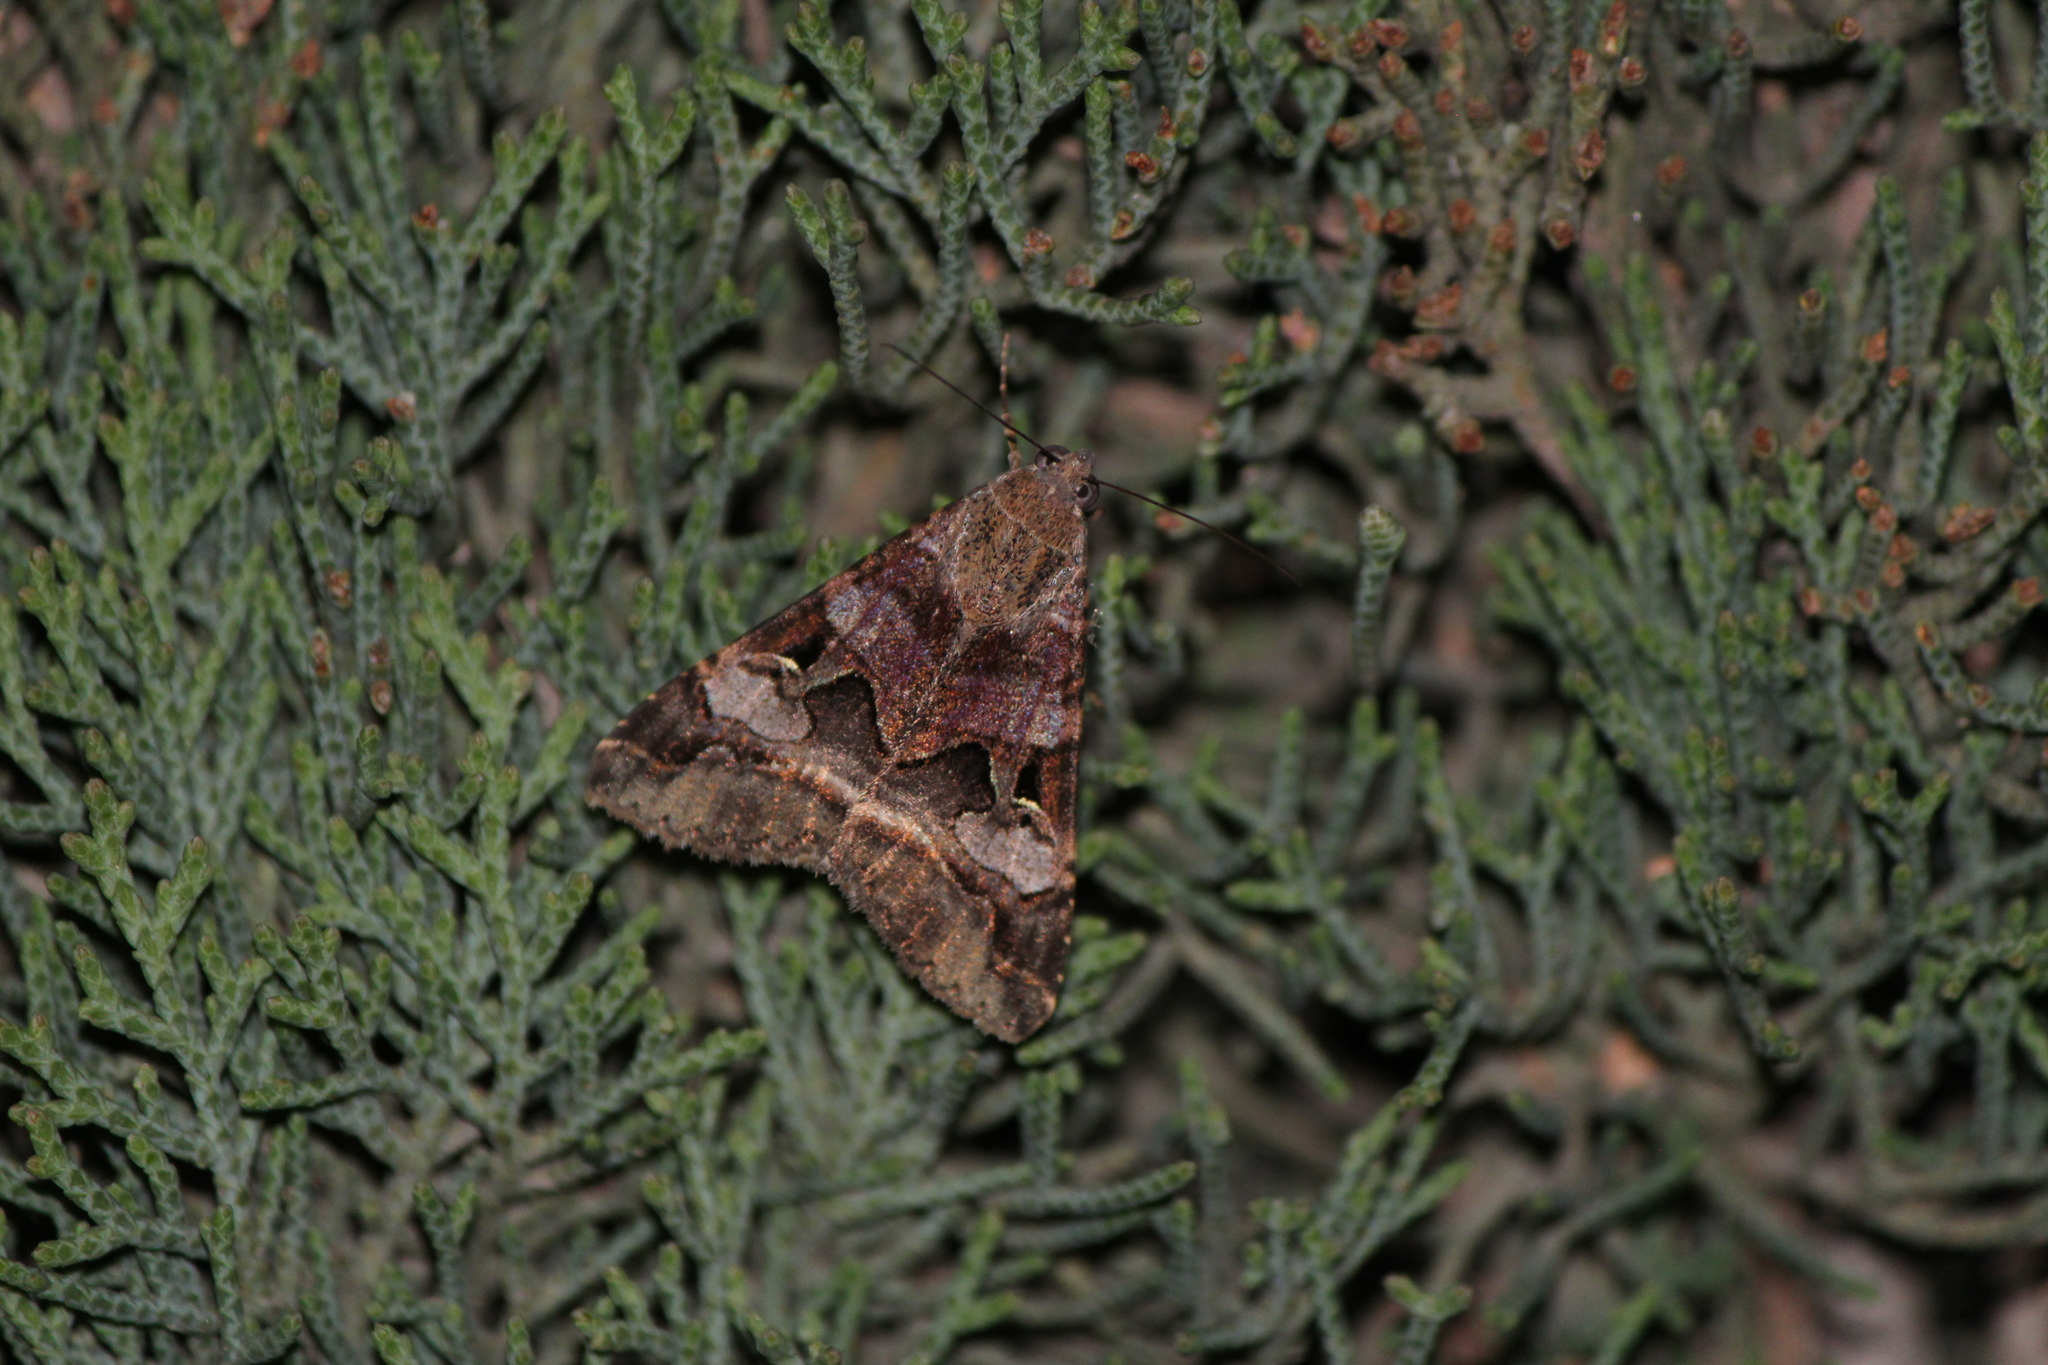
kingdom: Animalia
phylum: Arthropoda
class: Insecta
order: Lepidoptera
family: Erebidae
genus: Melipotis
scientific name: Melipotis perpendicularis
